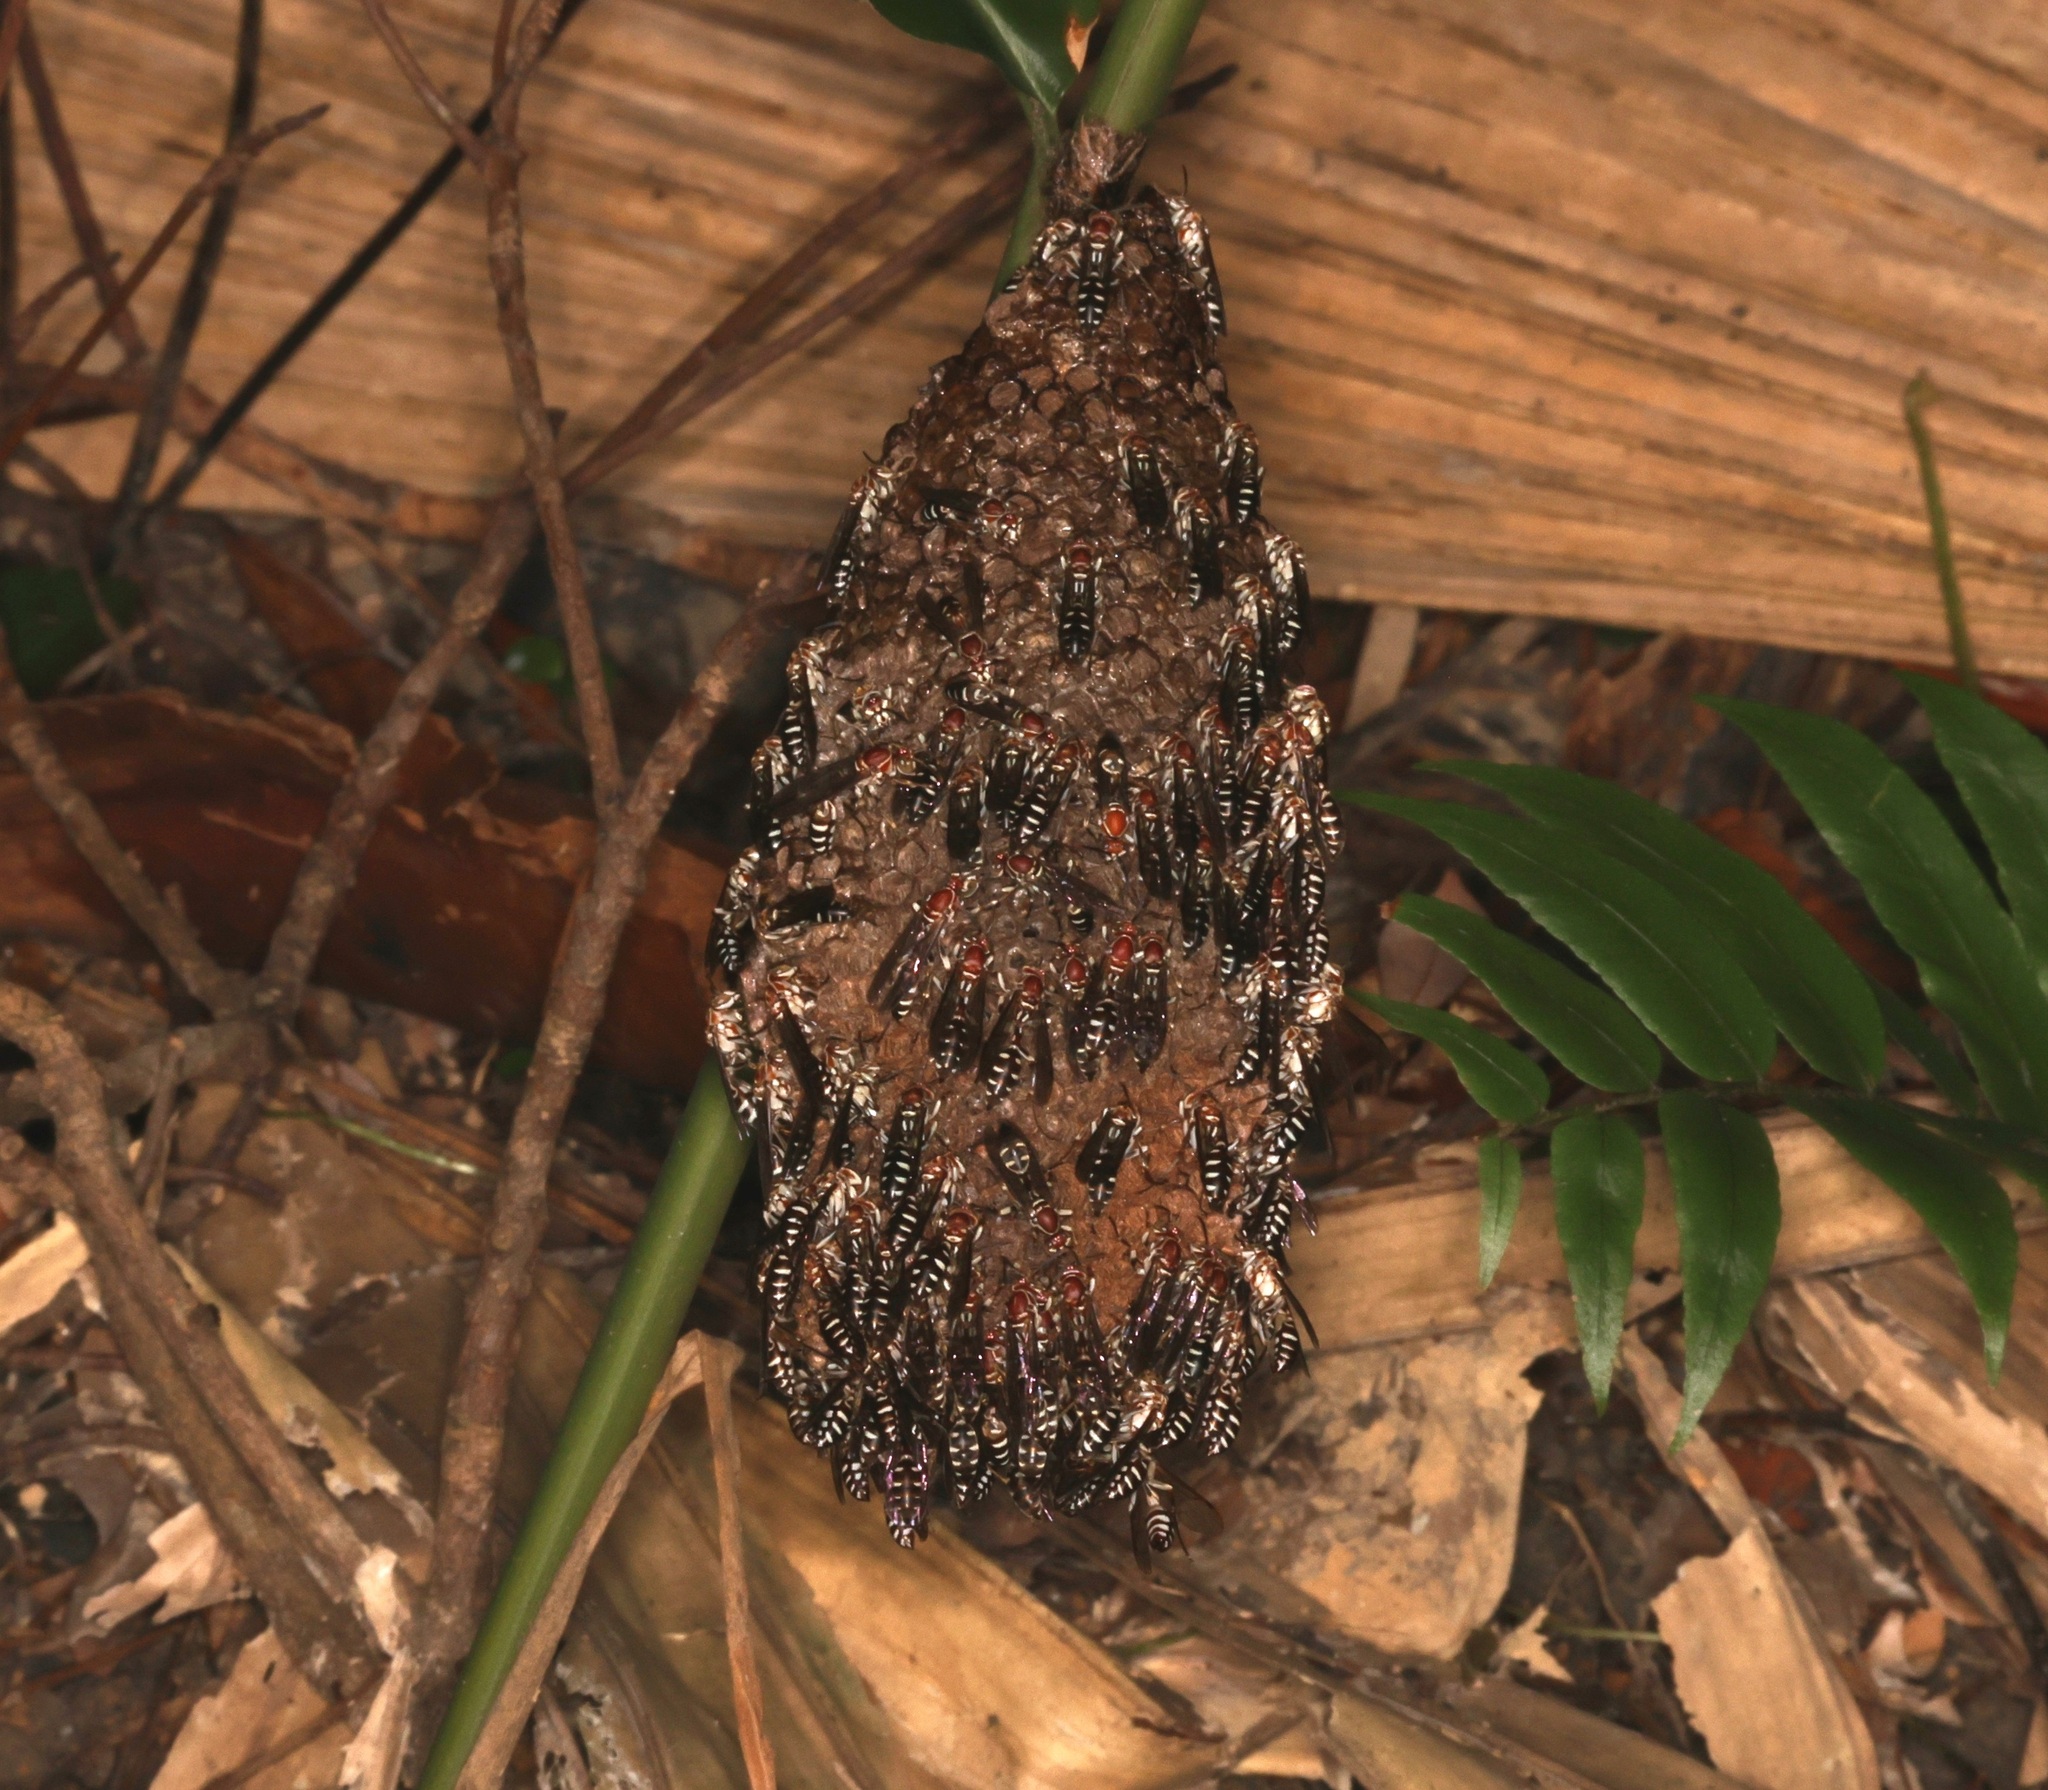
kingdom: Animalia
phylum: Arthropoda
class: Insecta
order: Hymenoptera
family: Vespidae
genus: Parapolybia
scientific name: Parapolybia nodosa
